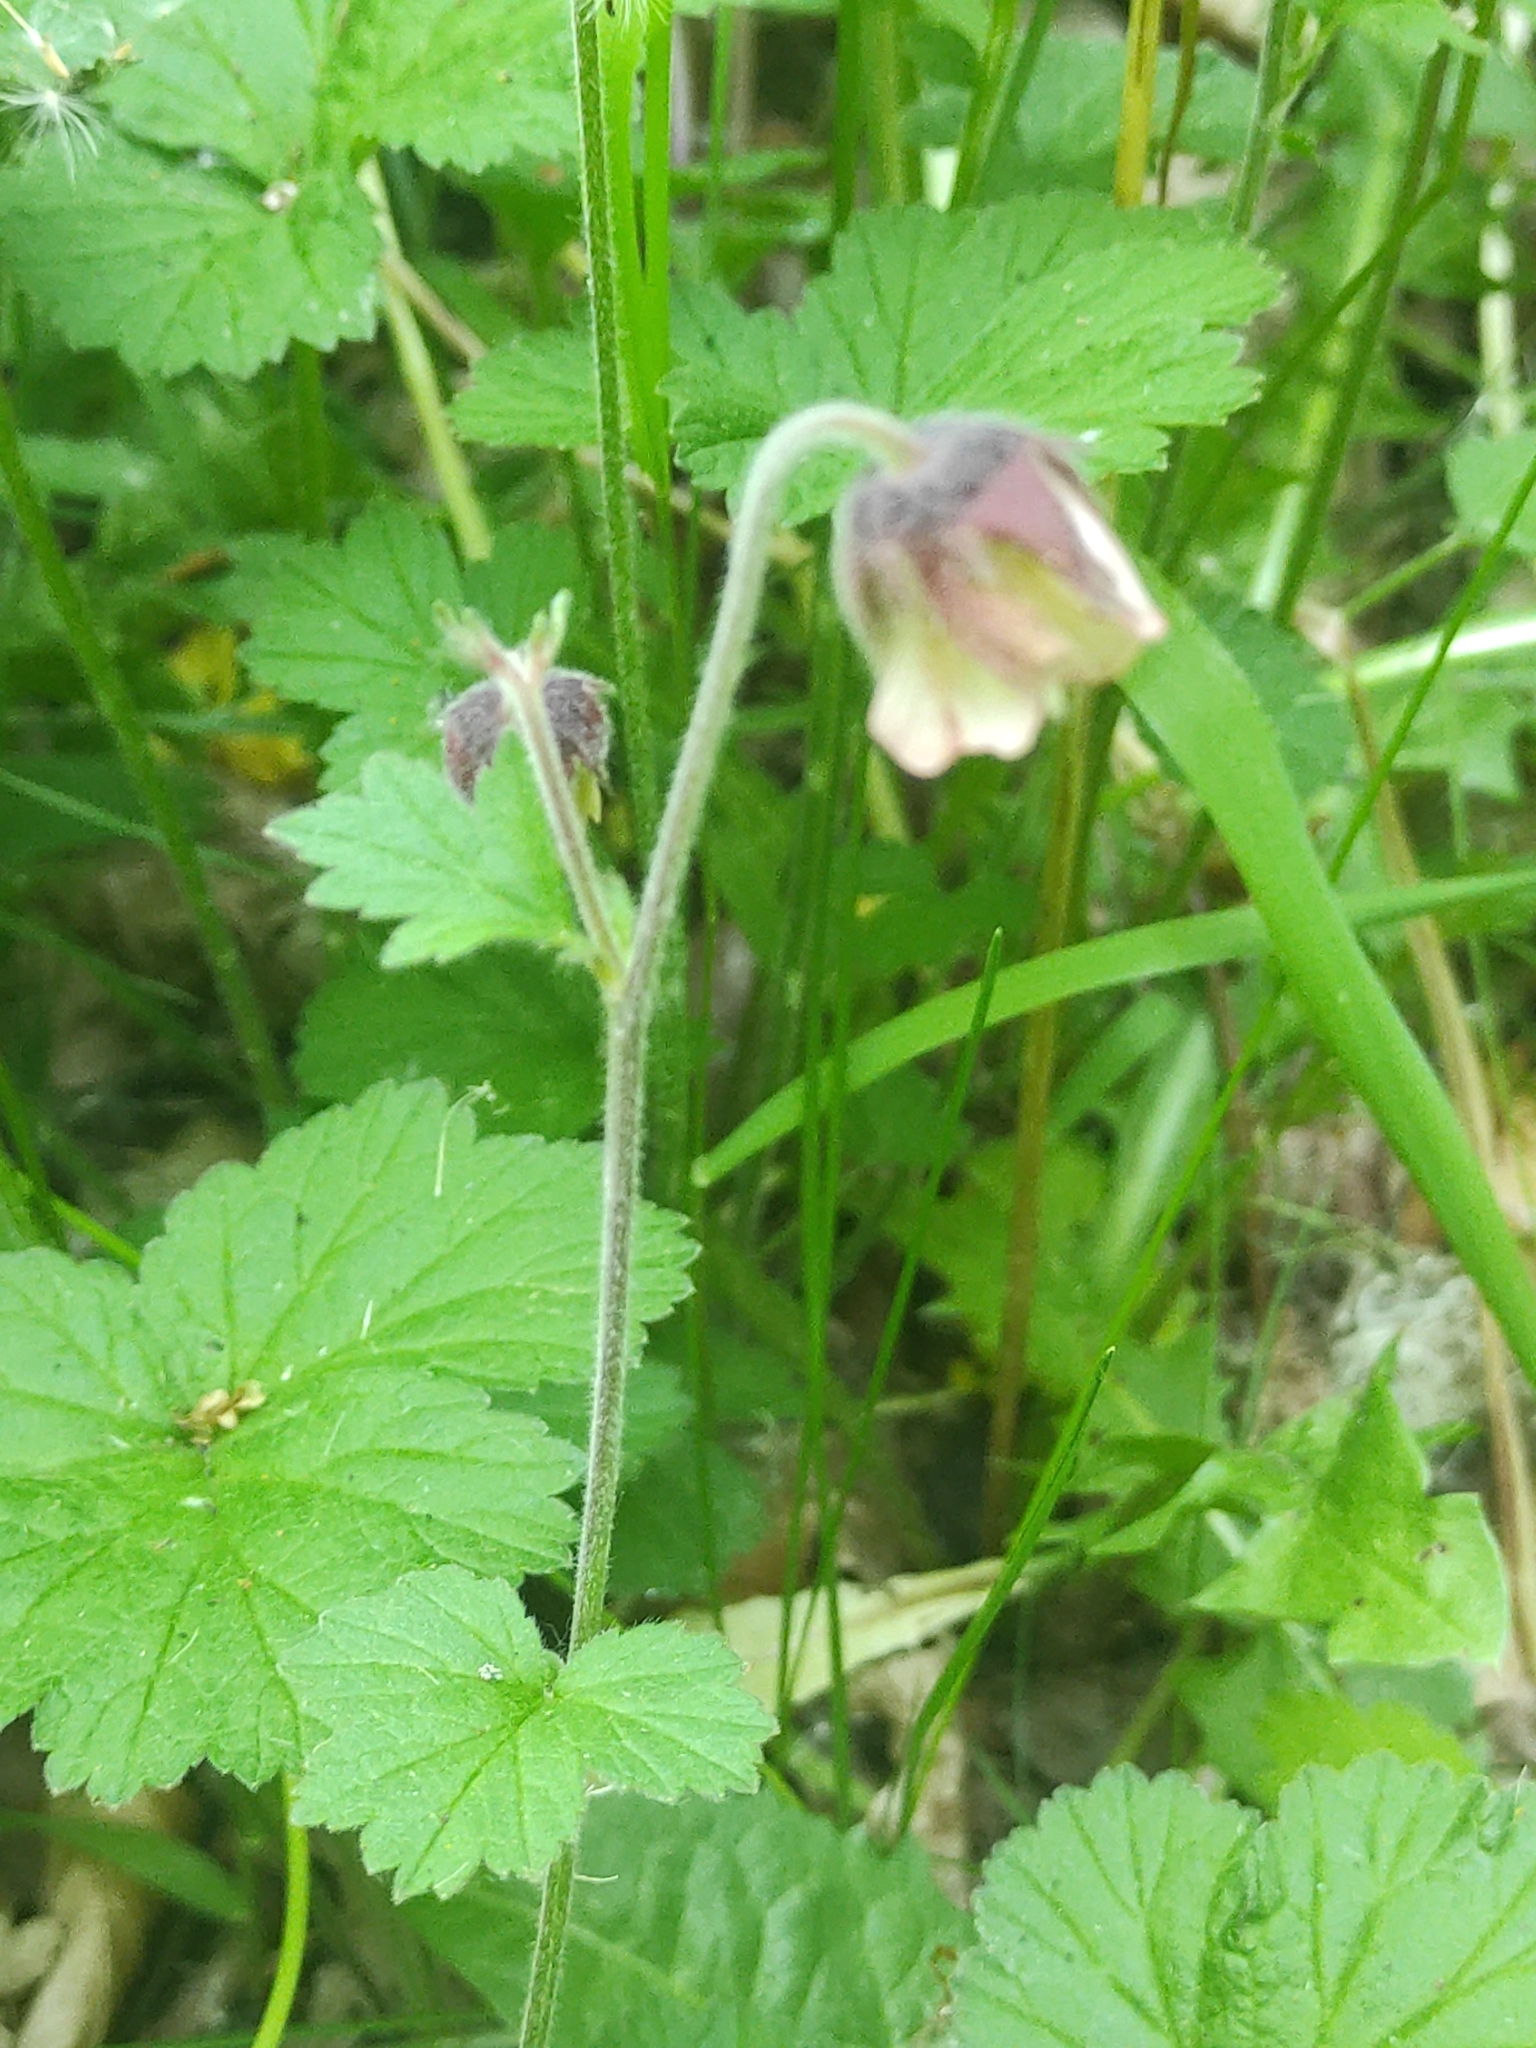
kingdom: Plantae
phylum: Tracheophyta
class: Magnoliopsida
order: Rosales
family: Rosaceae
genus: Geum
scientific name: Geum rivale
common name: Water avens
